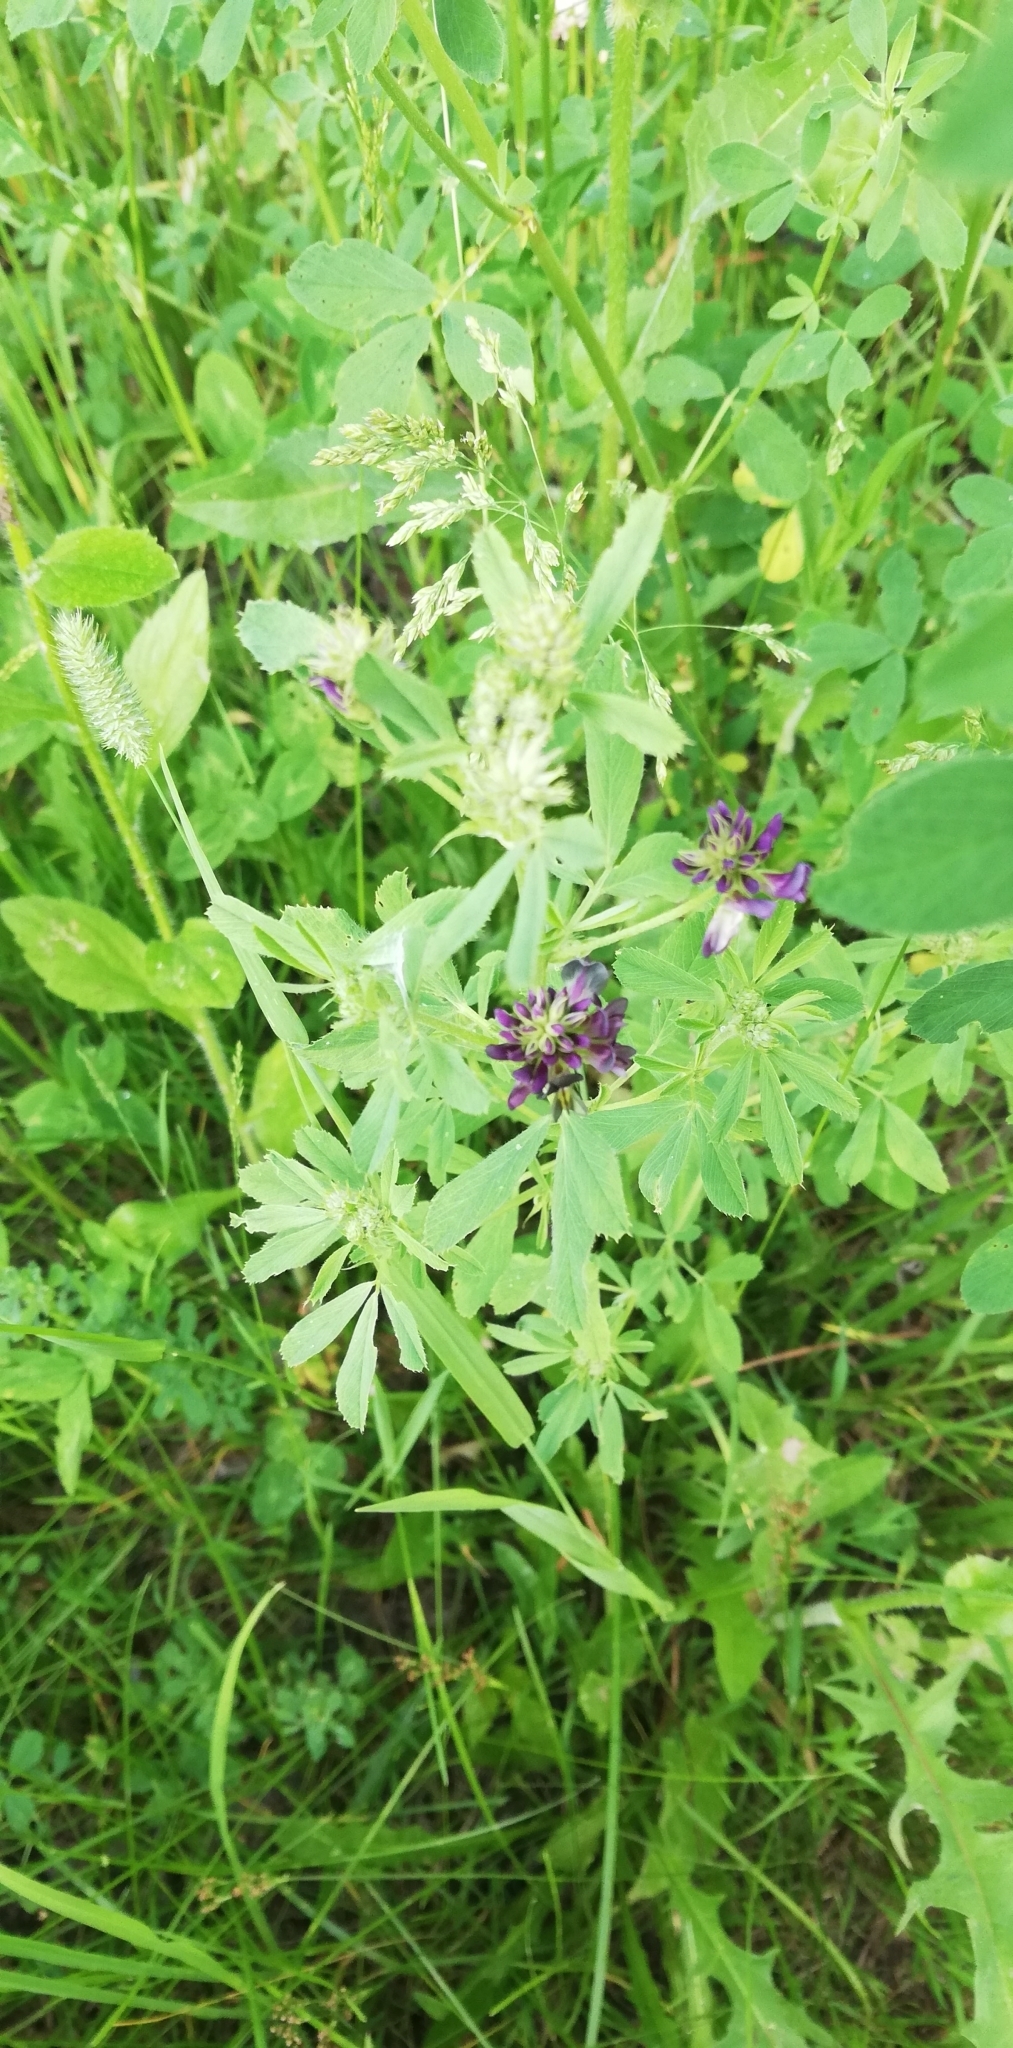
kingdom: Plantae
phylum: Tracheophyta
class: Magnoliopsida
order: Fabales
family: Fabaceae
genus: Medicago
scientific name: Medicago sativa
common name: Alfalfa
